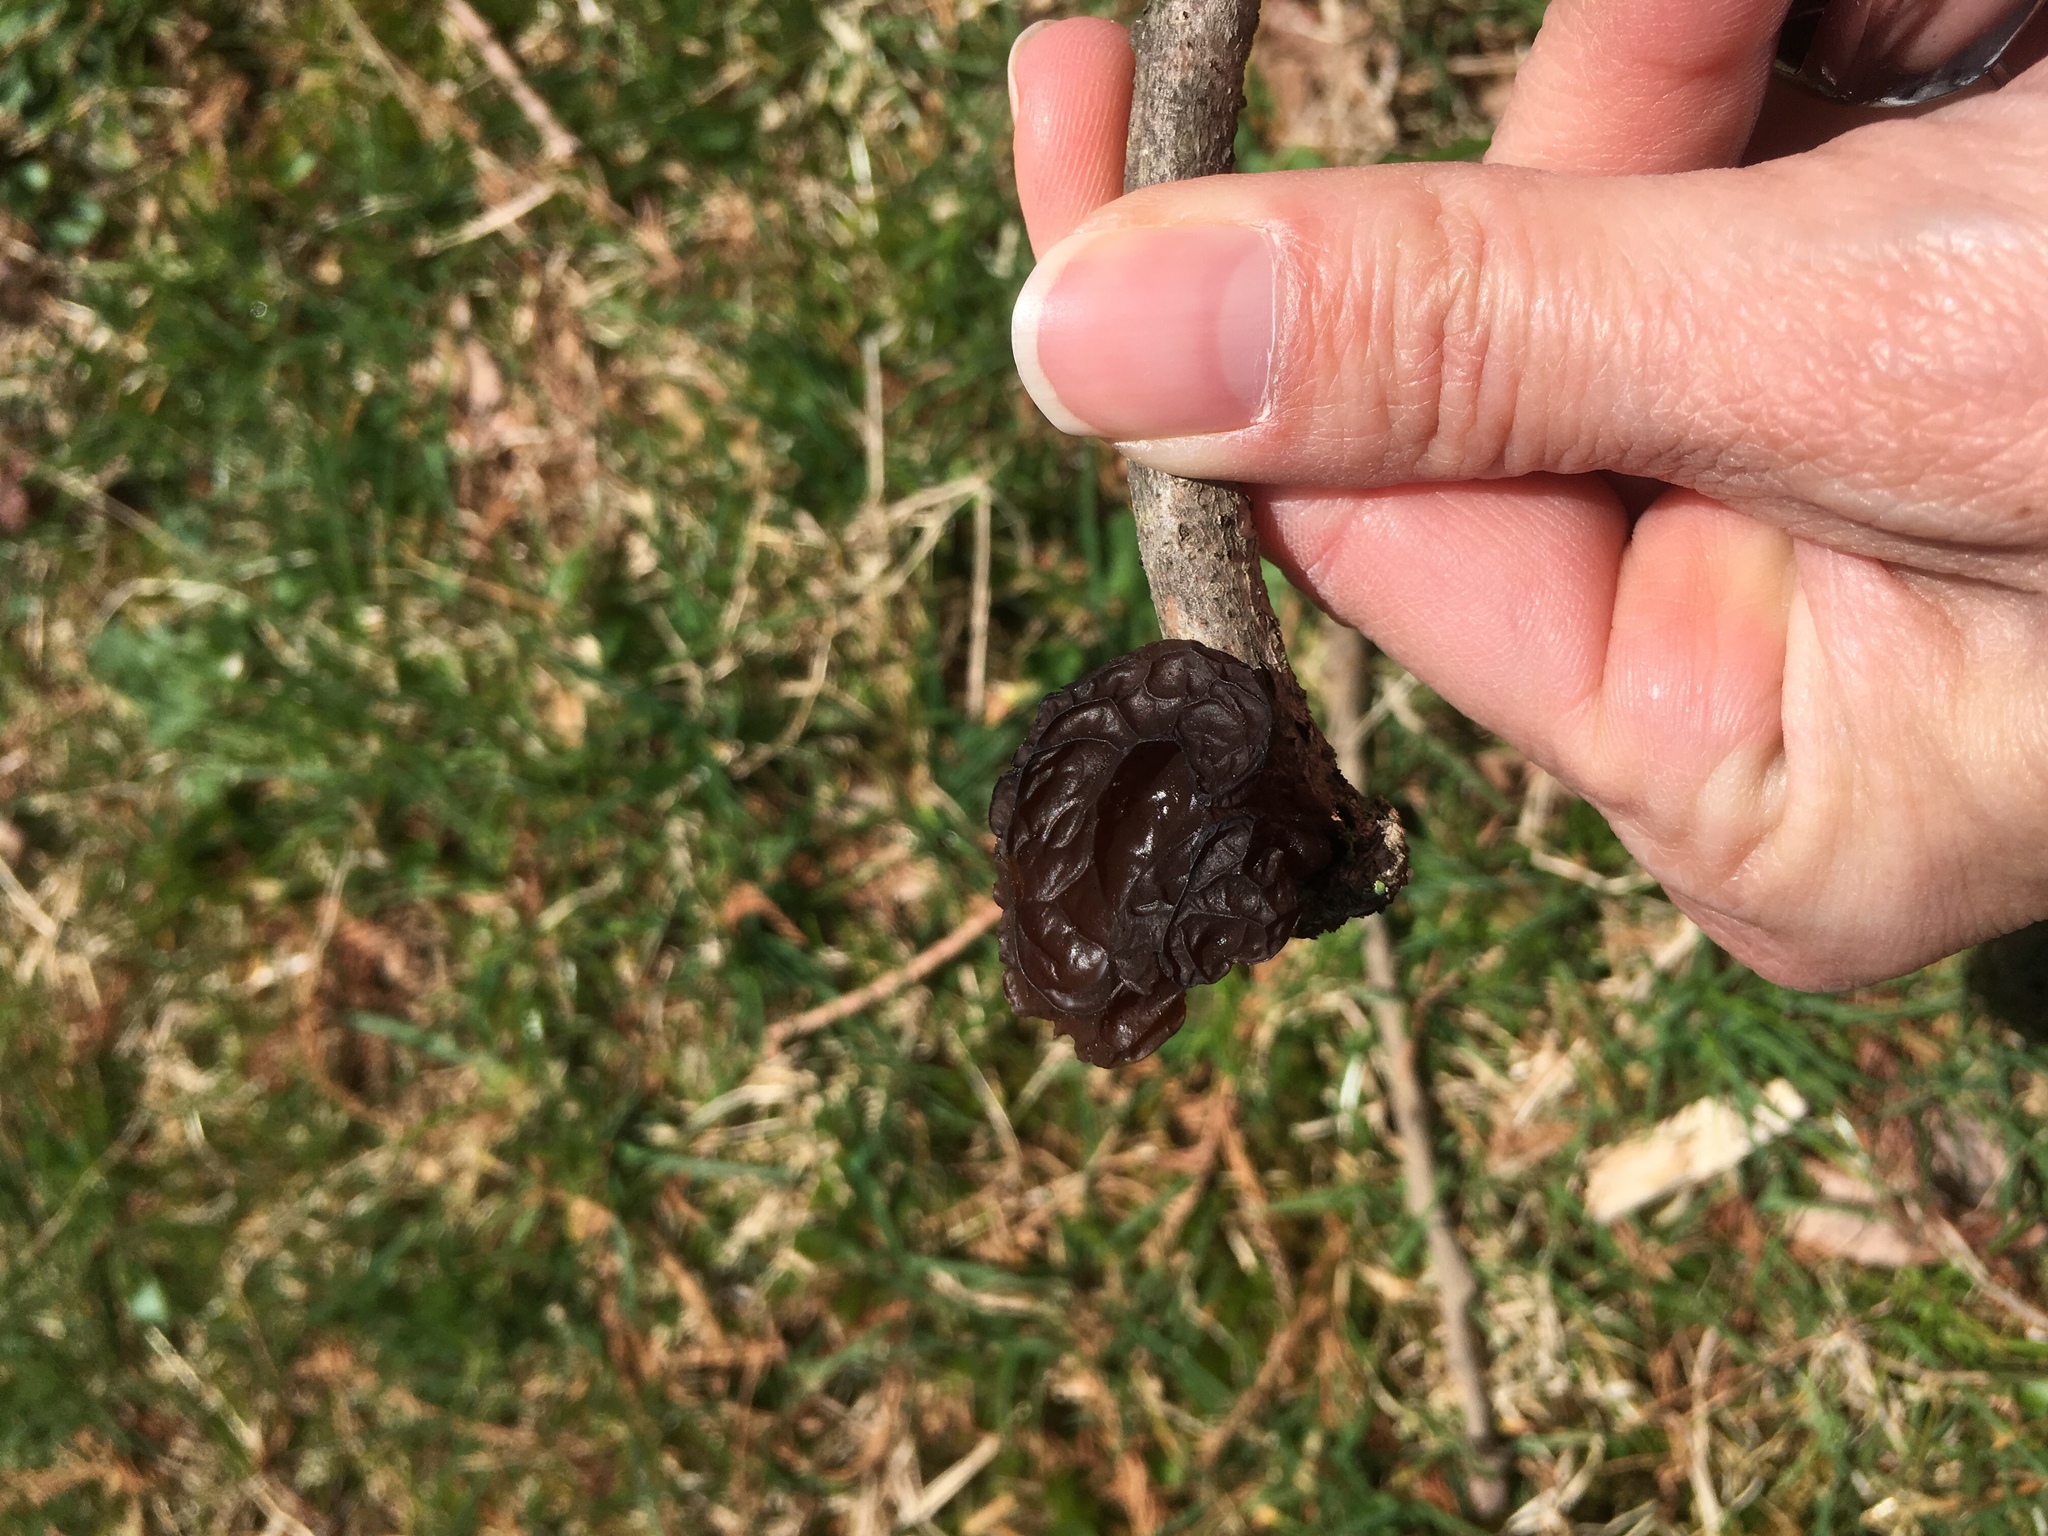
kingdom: Fungi
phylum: Basidiomycota
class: Agaricomycetes
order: Auriculariales
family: Auriculariaceae
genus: Exidia
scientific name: Exidia
